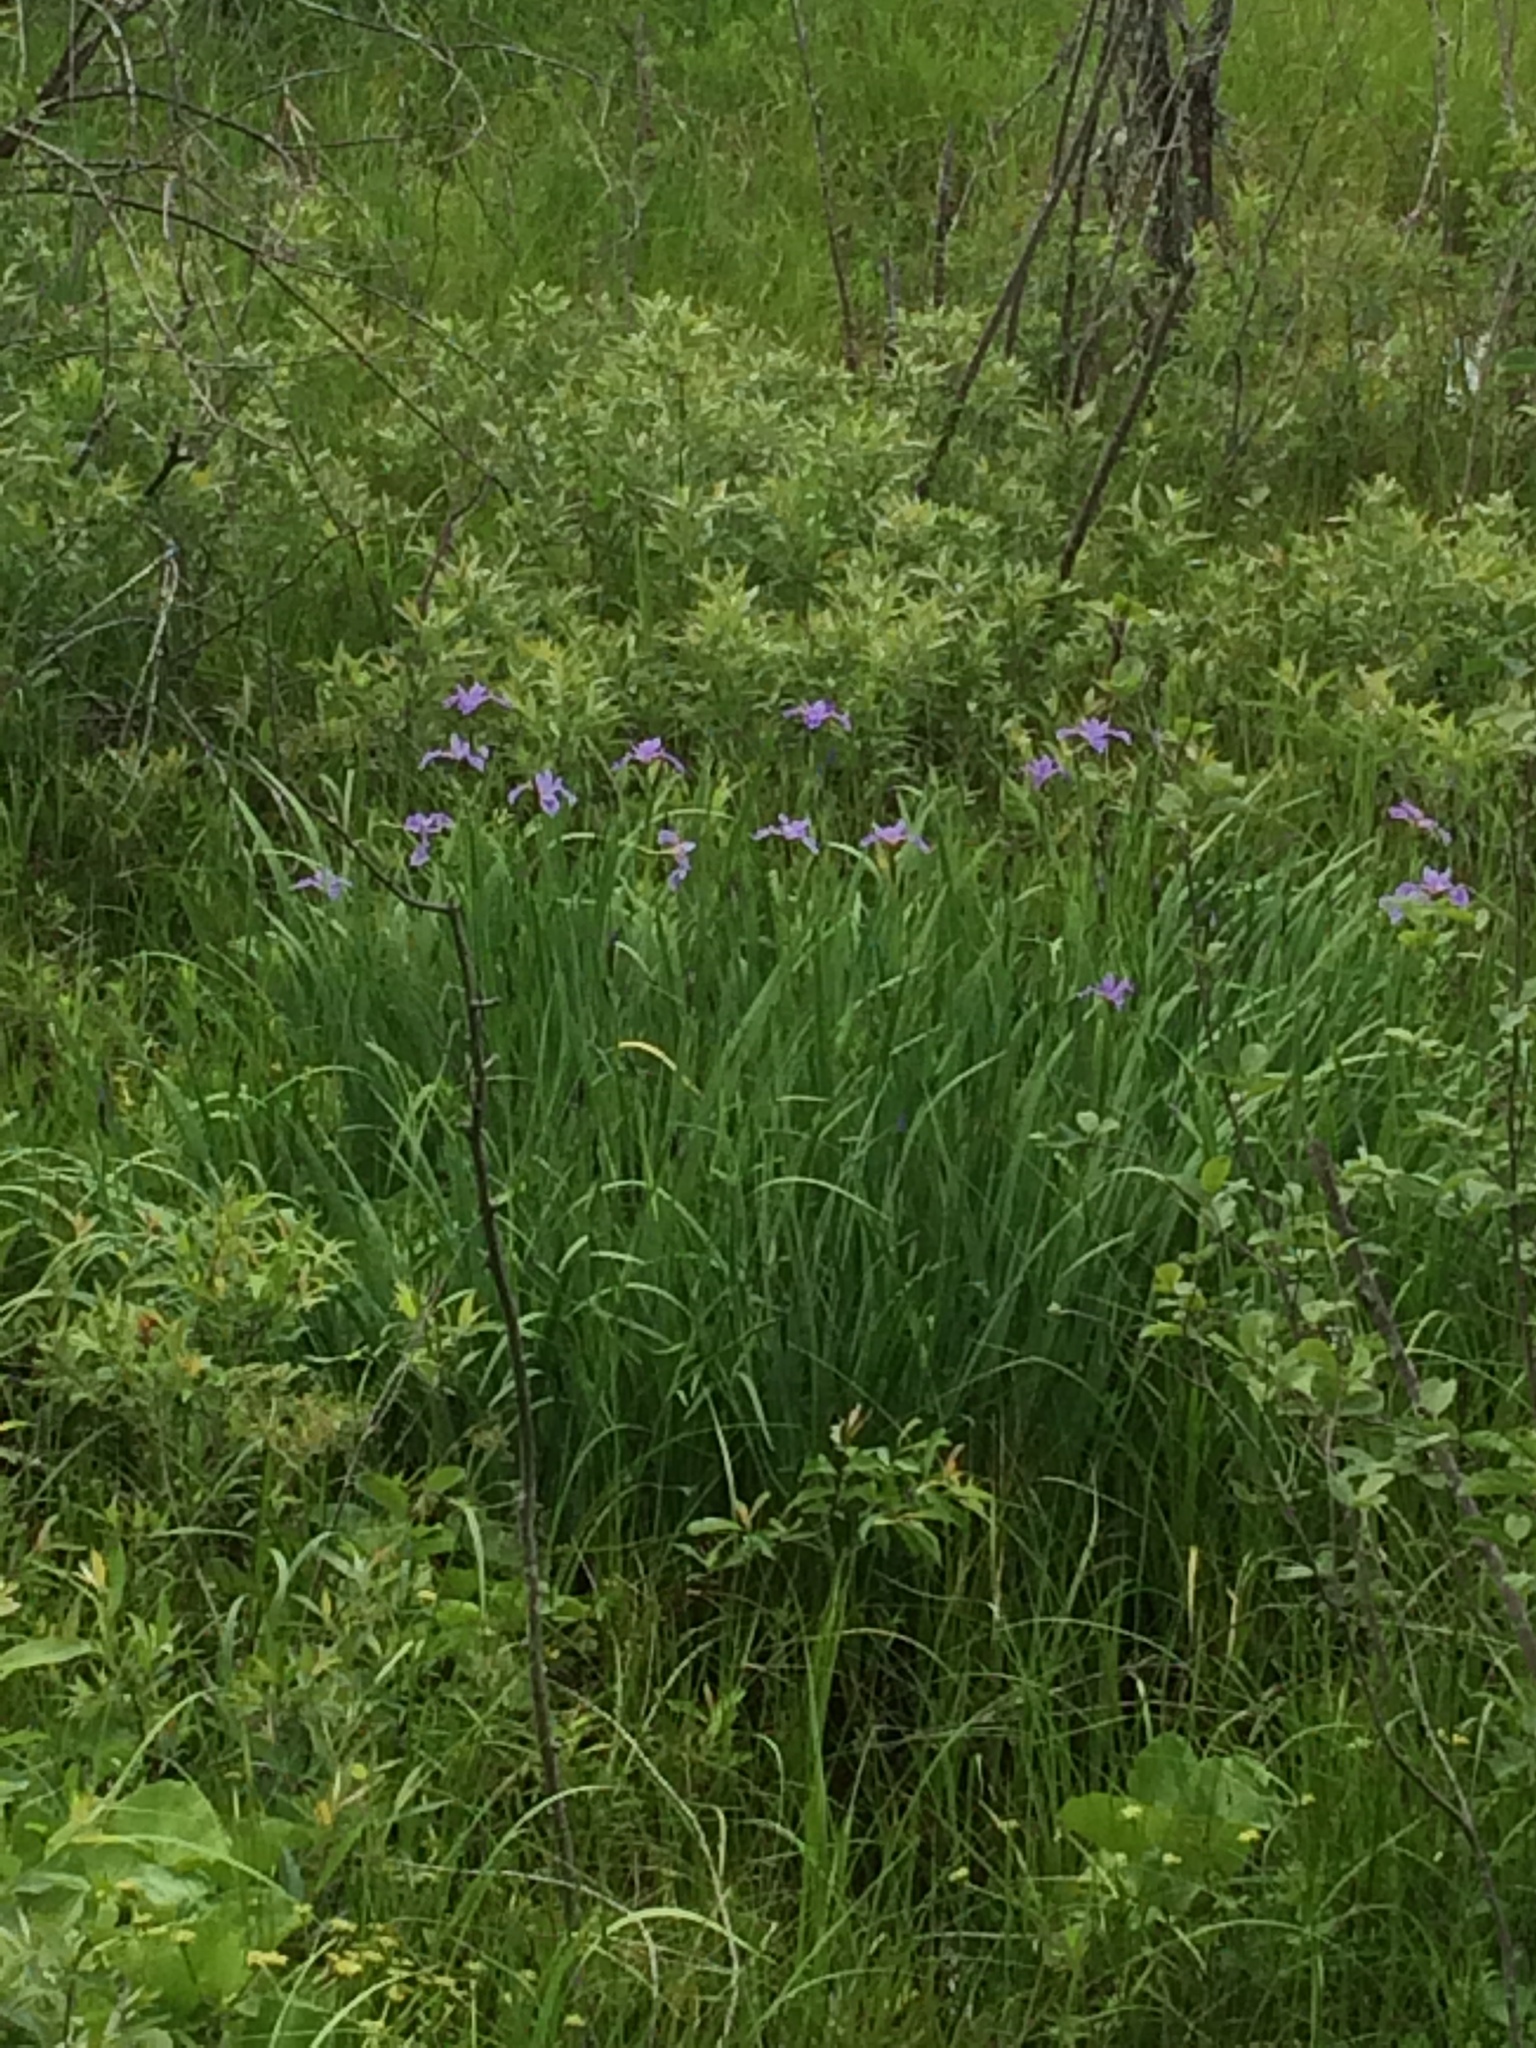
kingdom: Plantae
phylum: Tracheophyta
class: Liliopsida
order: Asparagales
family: Iridaceae
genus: Iris
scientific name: Iris versicolor
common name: Purple iris
